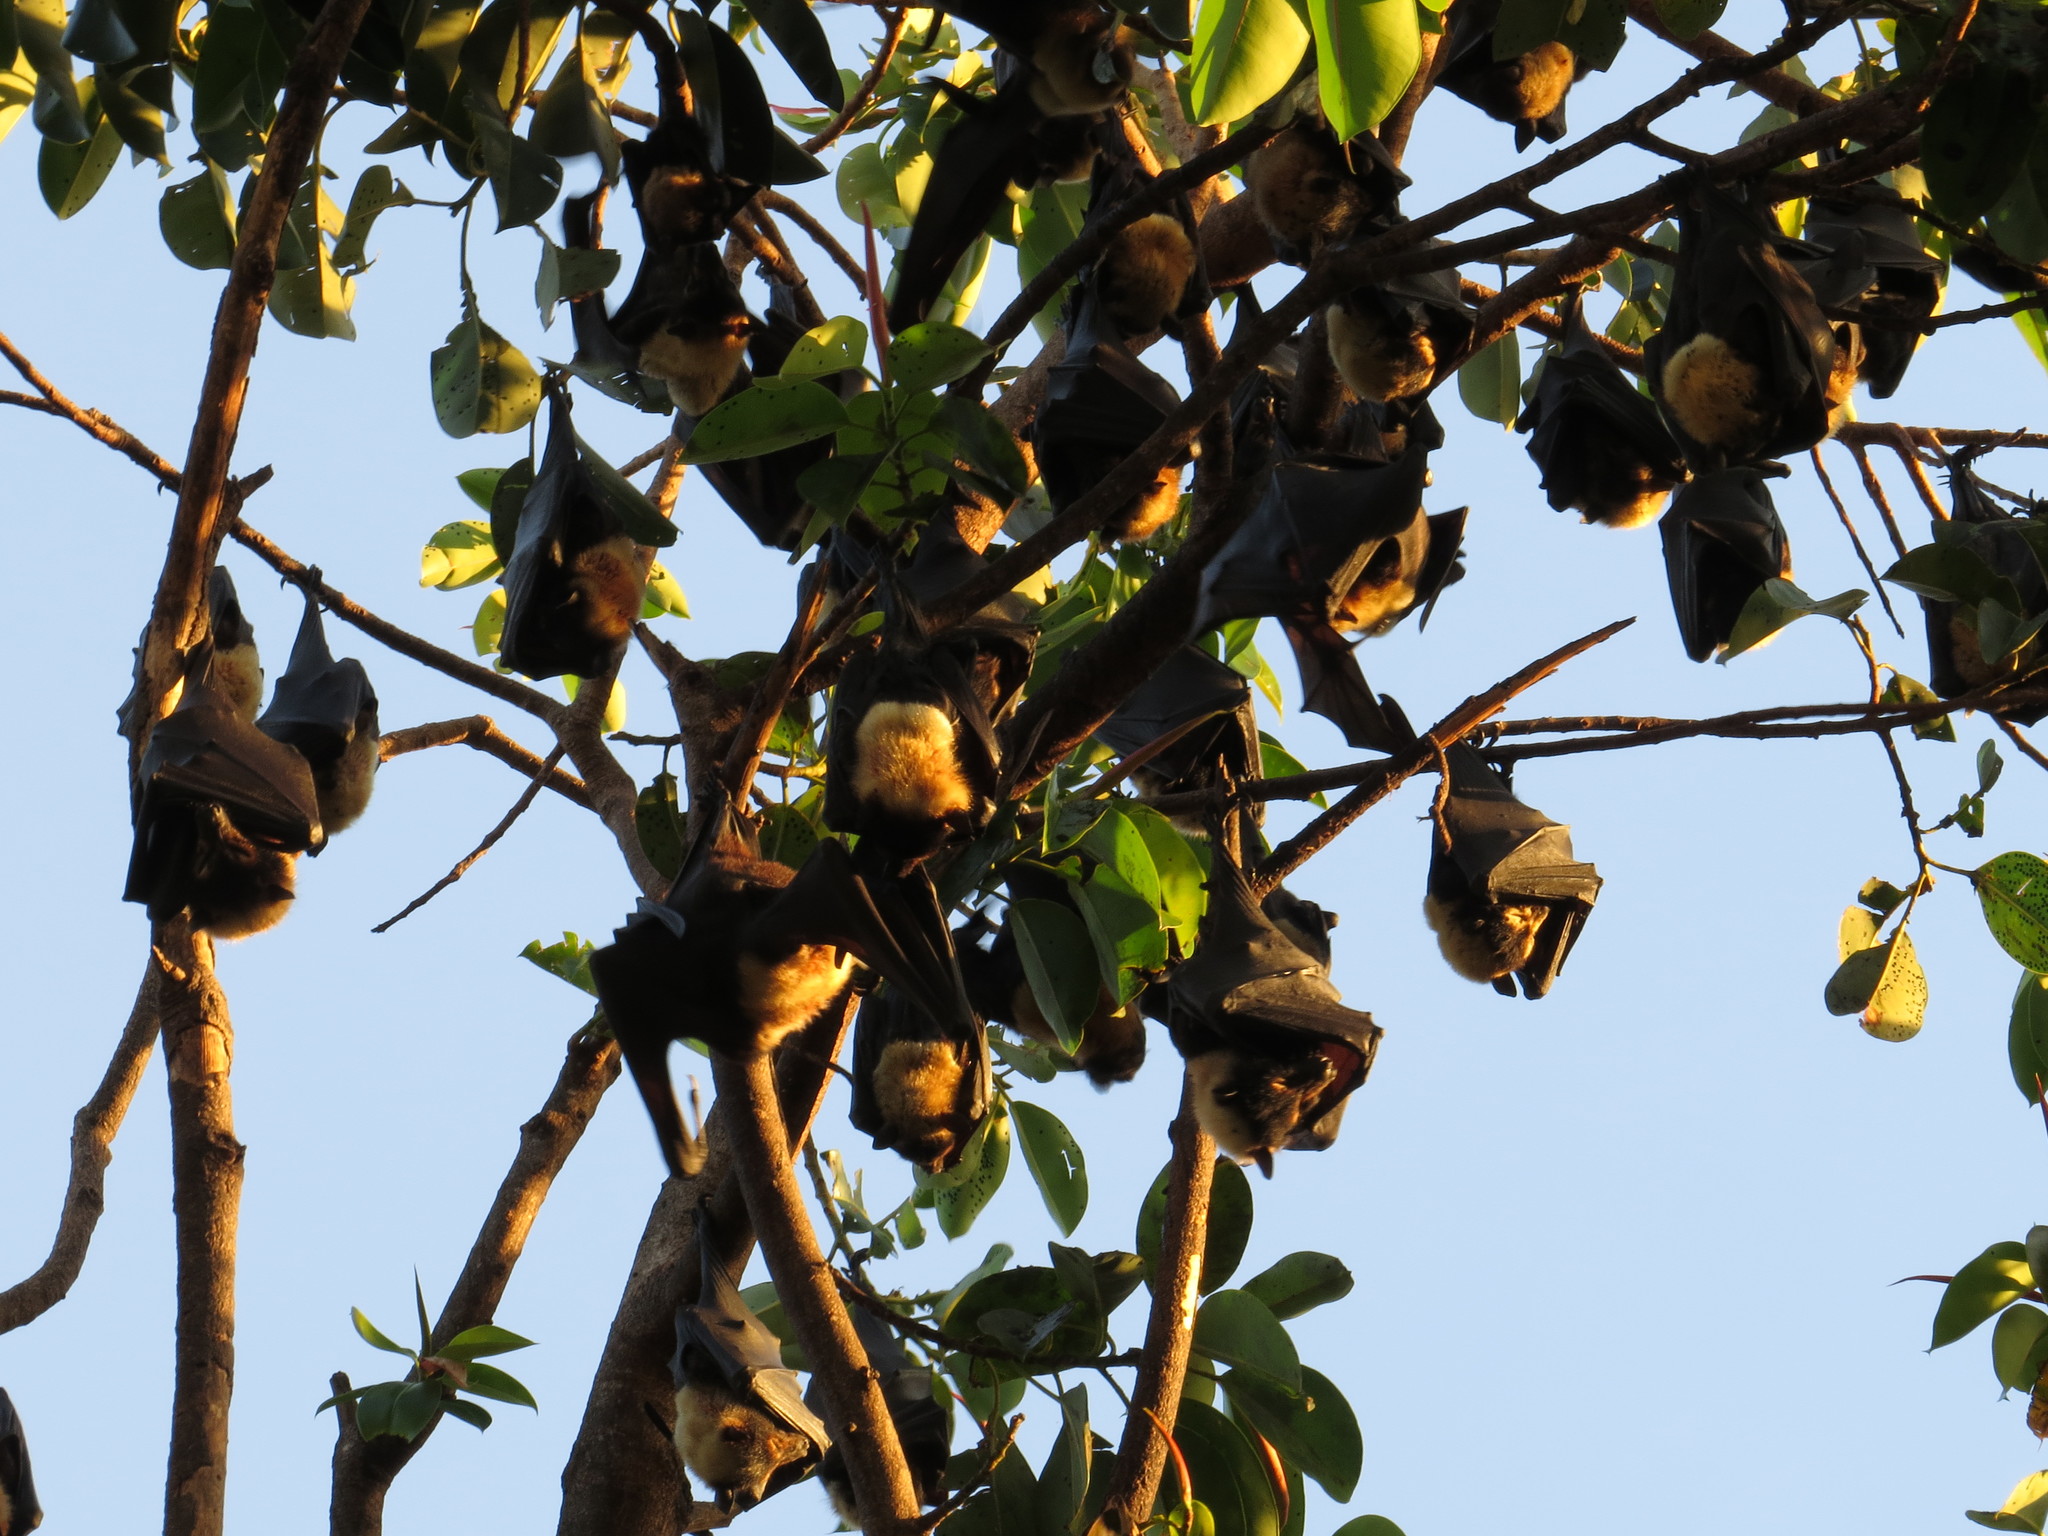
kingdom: Animalia
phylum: Chordata
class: Mammalia
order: Chiroptera
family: Pteropodidae
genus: Pteropus
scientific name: Pteropus conspicillatus
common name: Spectacled flying fox
